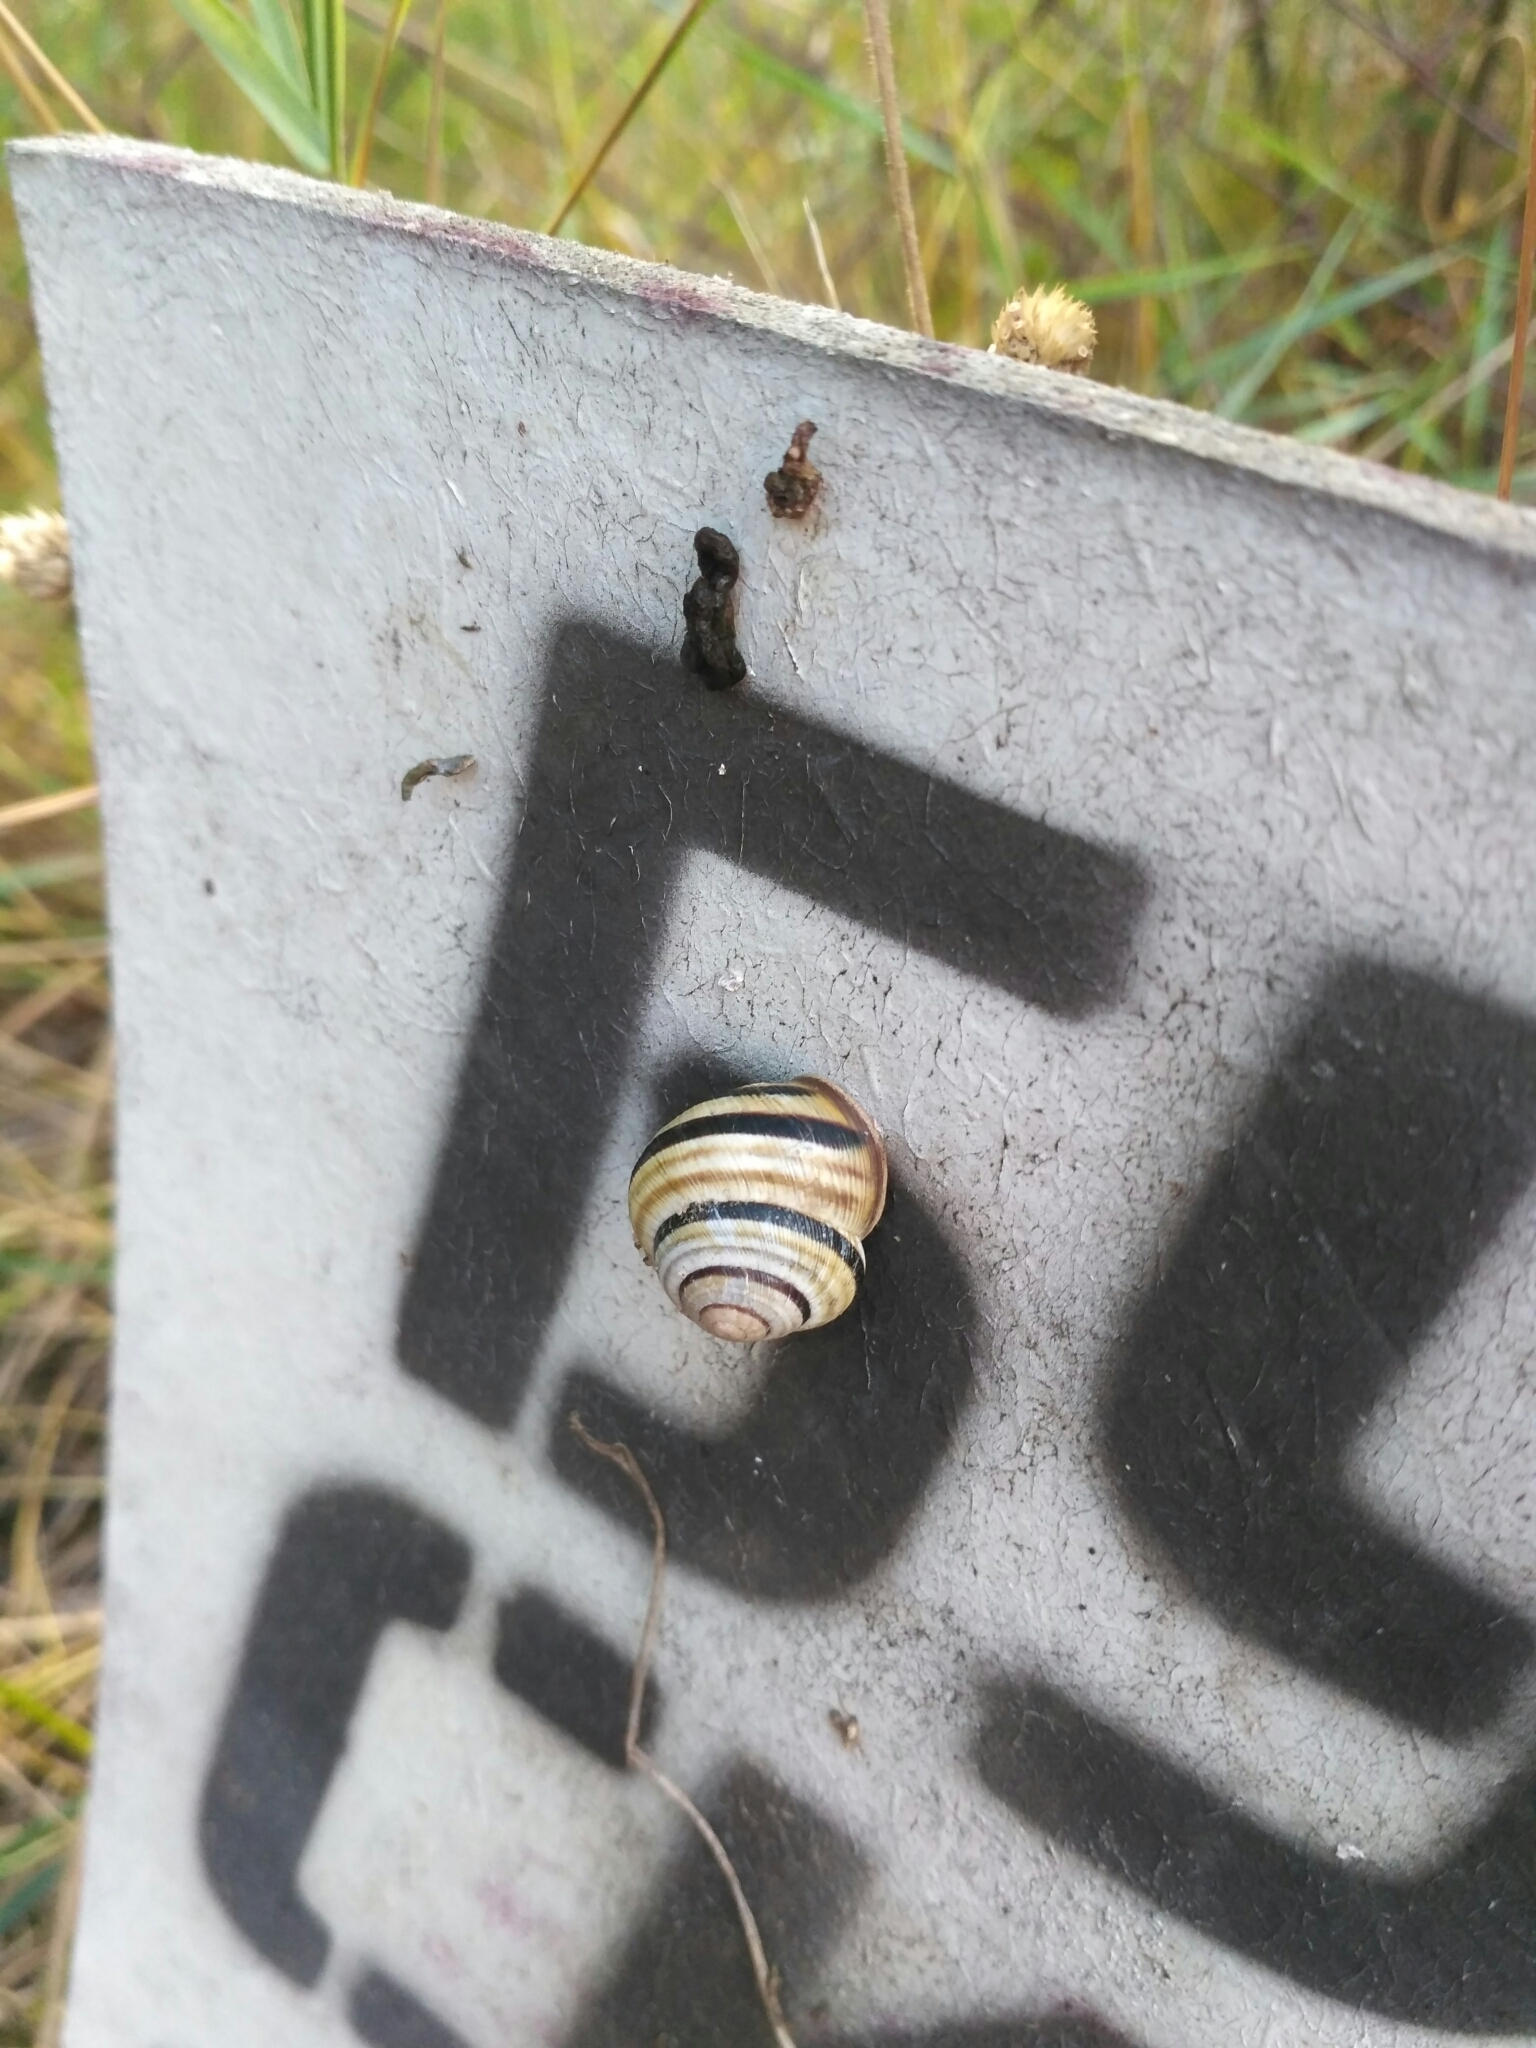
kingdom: Animalia
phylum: Mollusca
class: Gastropoda
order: Stylommatophora
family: Helicidae
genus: Caucasotachea
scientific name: Caucasotachea vindobonensis
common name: European helicid land snail
